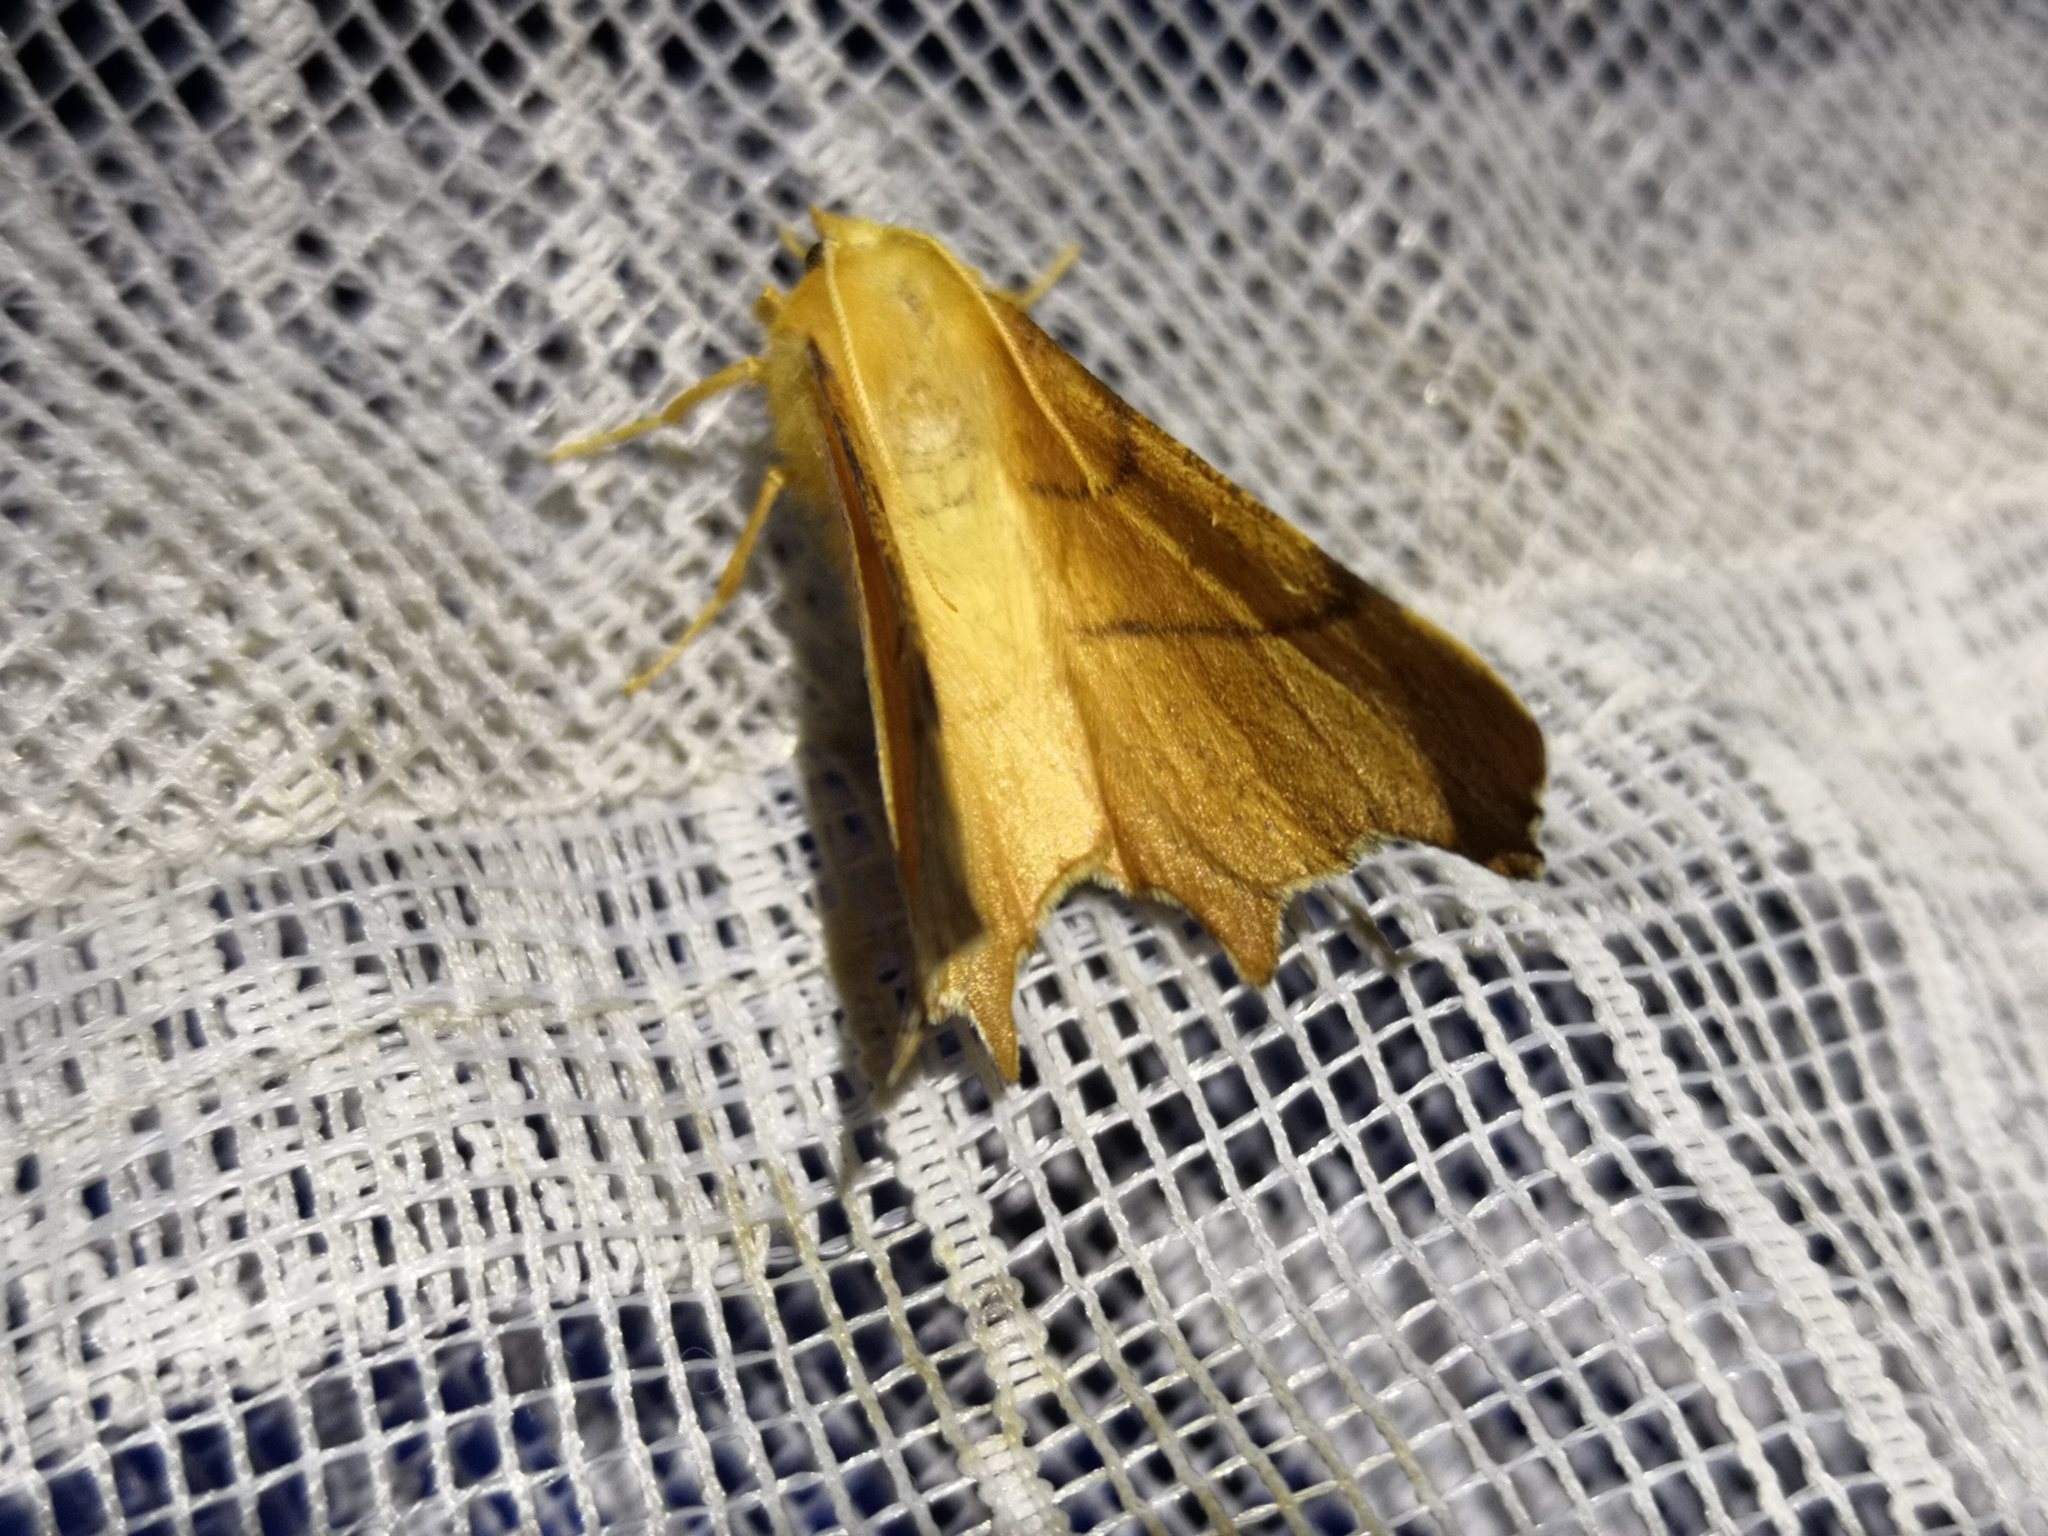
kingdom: Animalia
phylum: Arthropoda
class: Insecta
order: Lepidoptera
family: Geometridae
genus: Ennomos
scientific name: Ennomos erosaria
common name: September thorn
